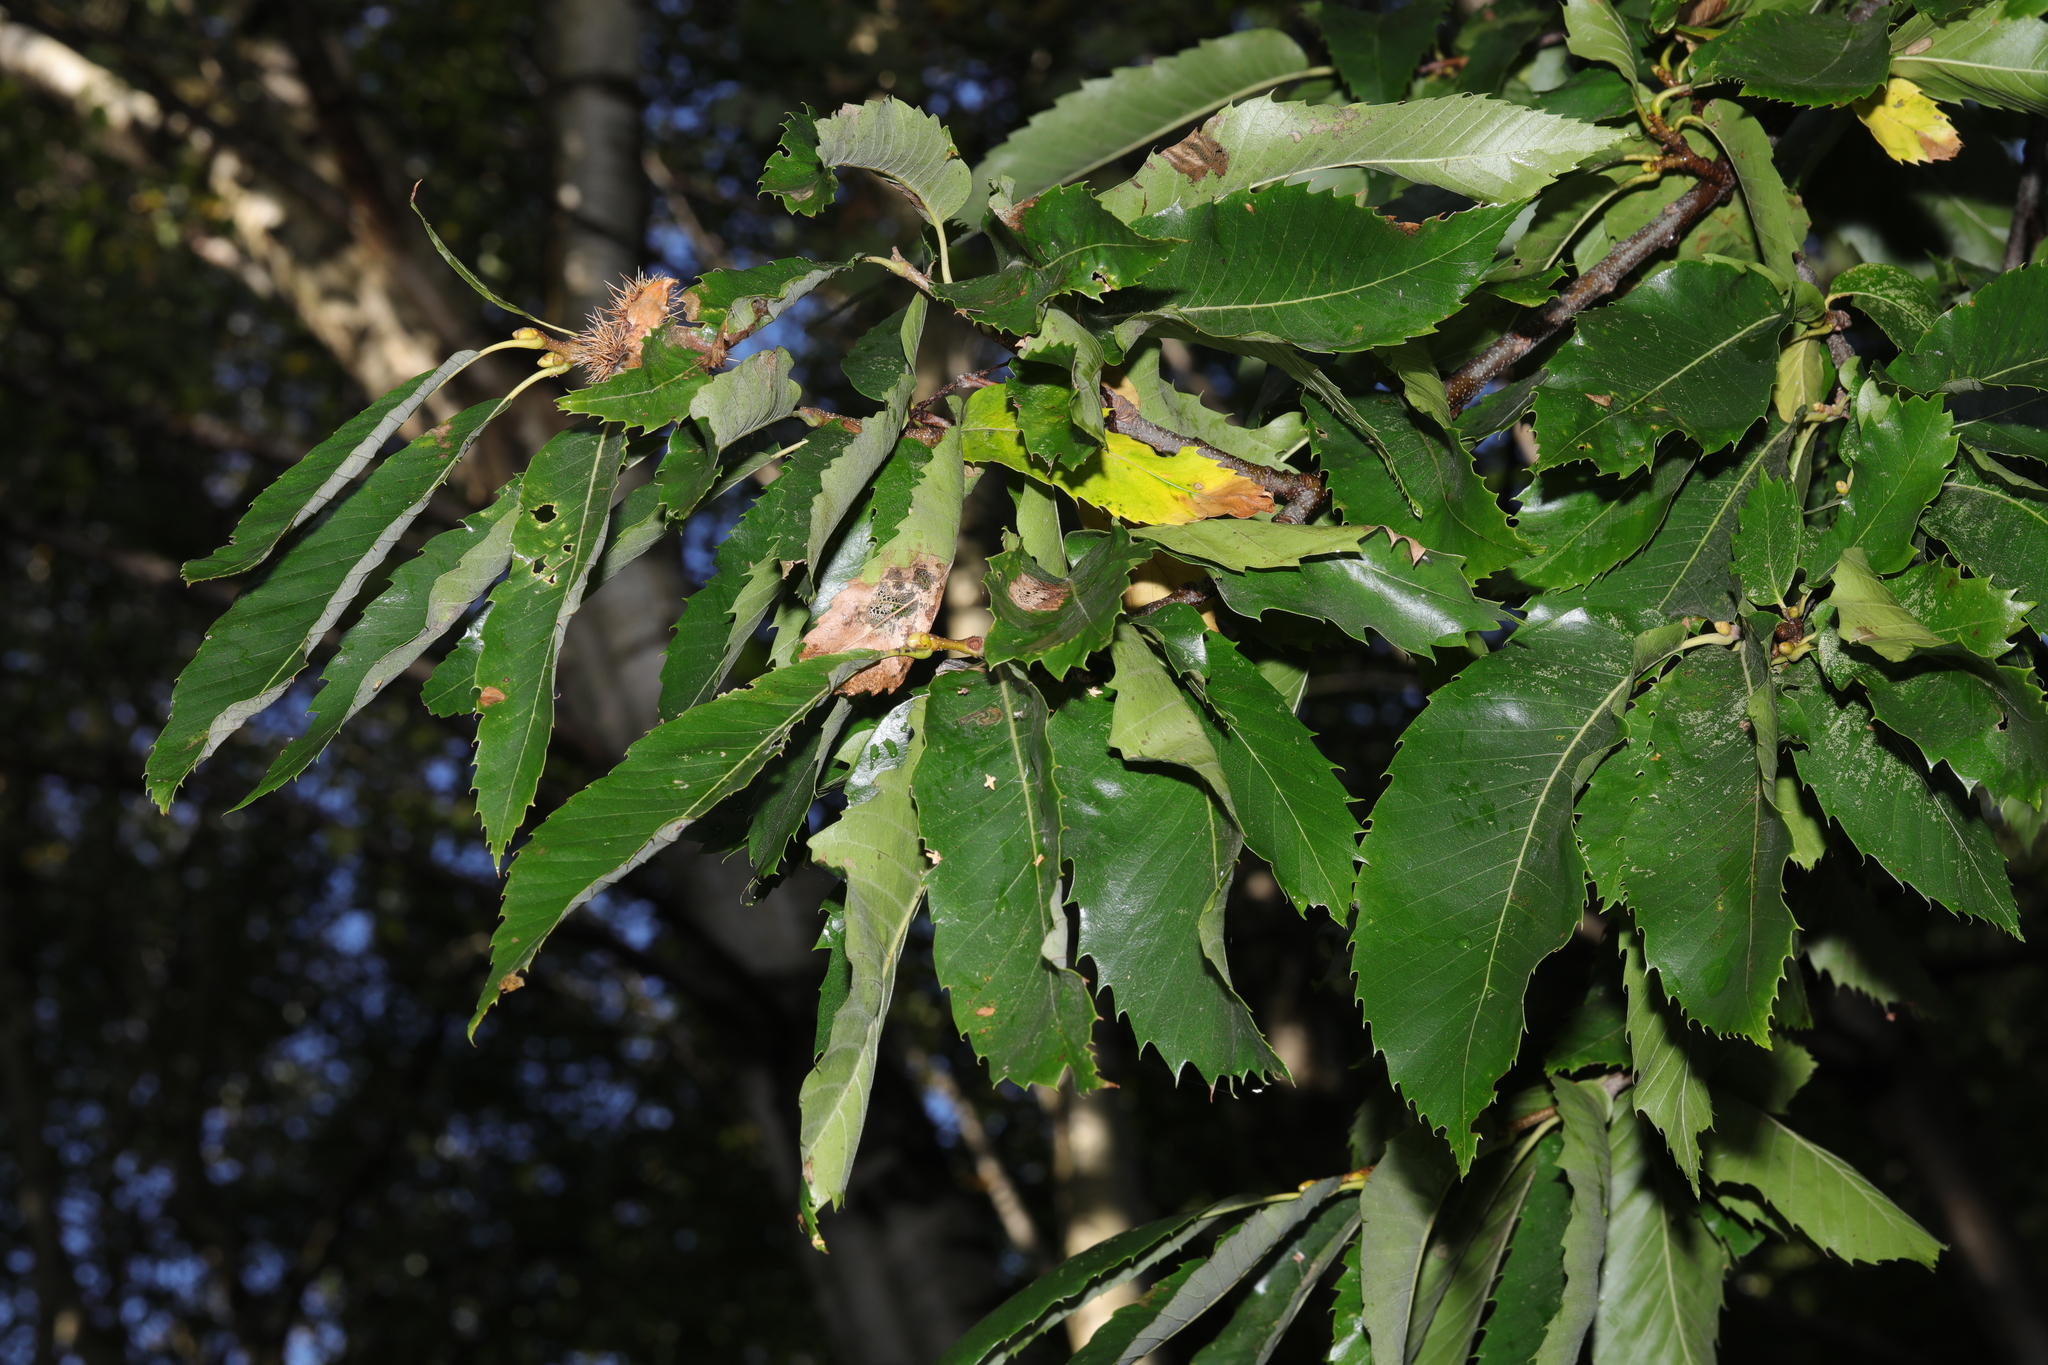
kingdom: Plantae
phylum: Tracheophyta
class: Magnoliopsida
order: Fagales
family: Fagaceae
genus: Castanea
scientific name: Castanea sativa
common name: Sweet chestnut
